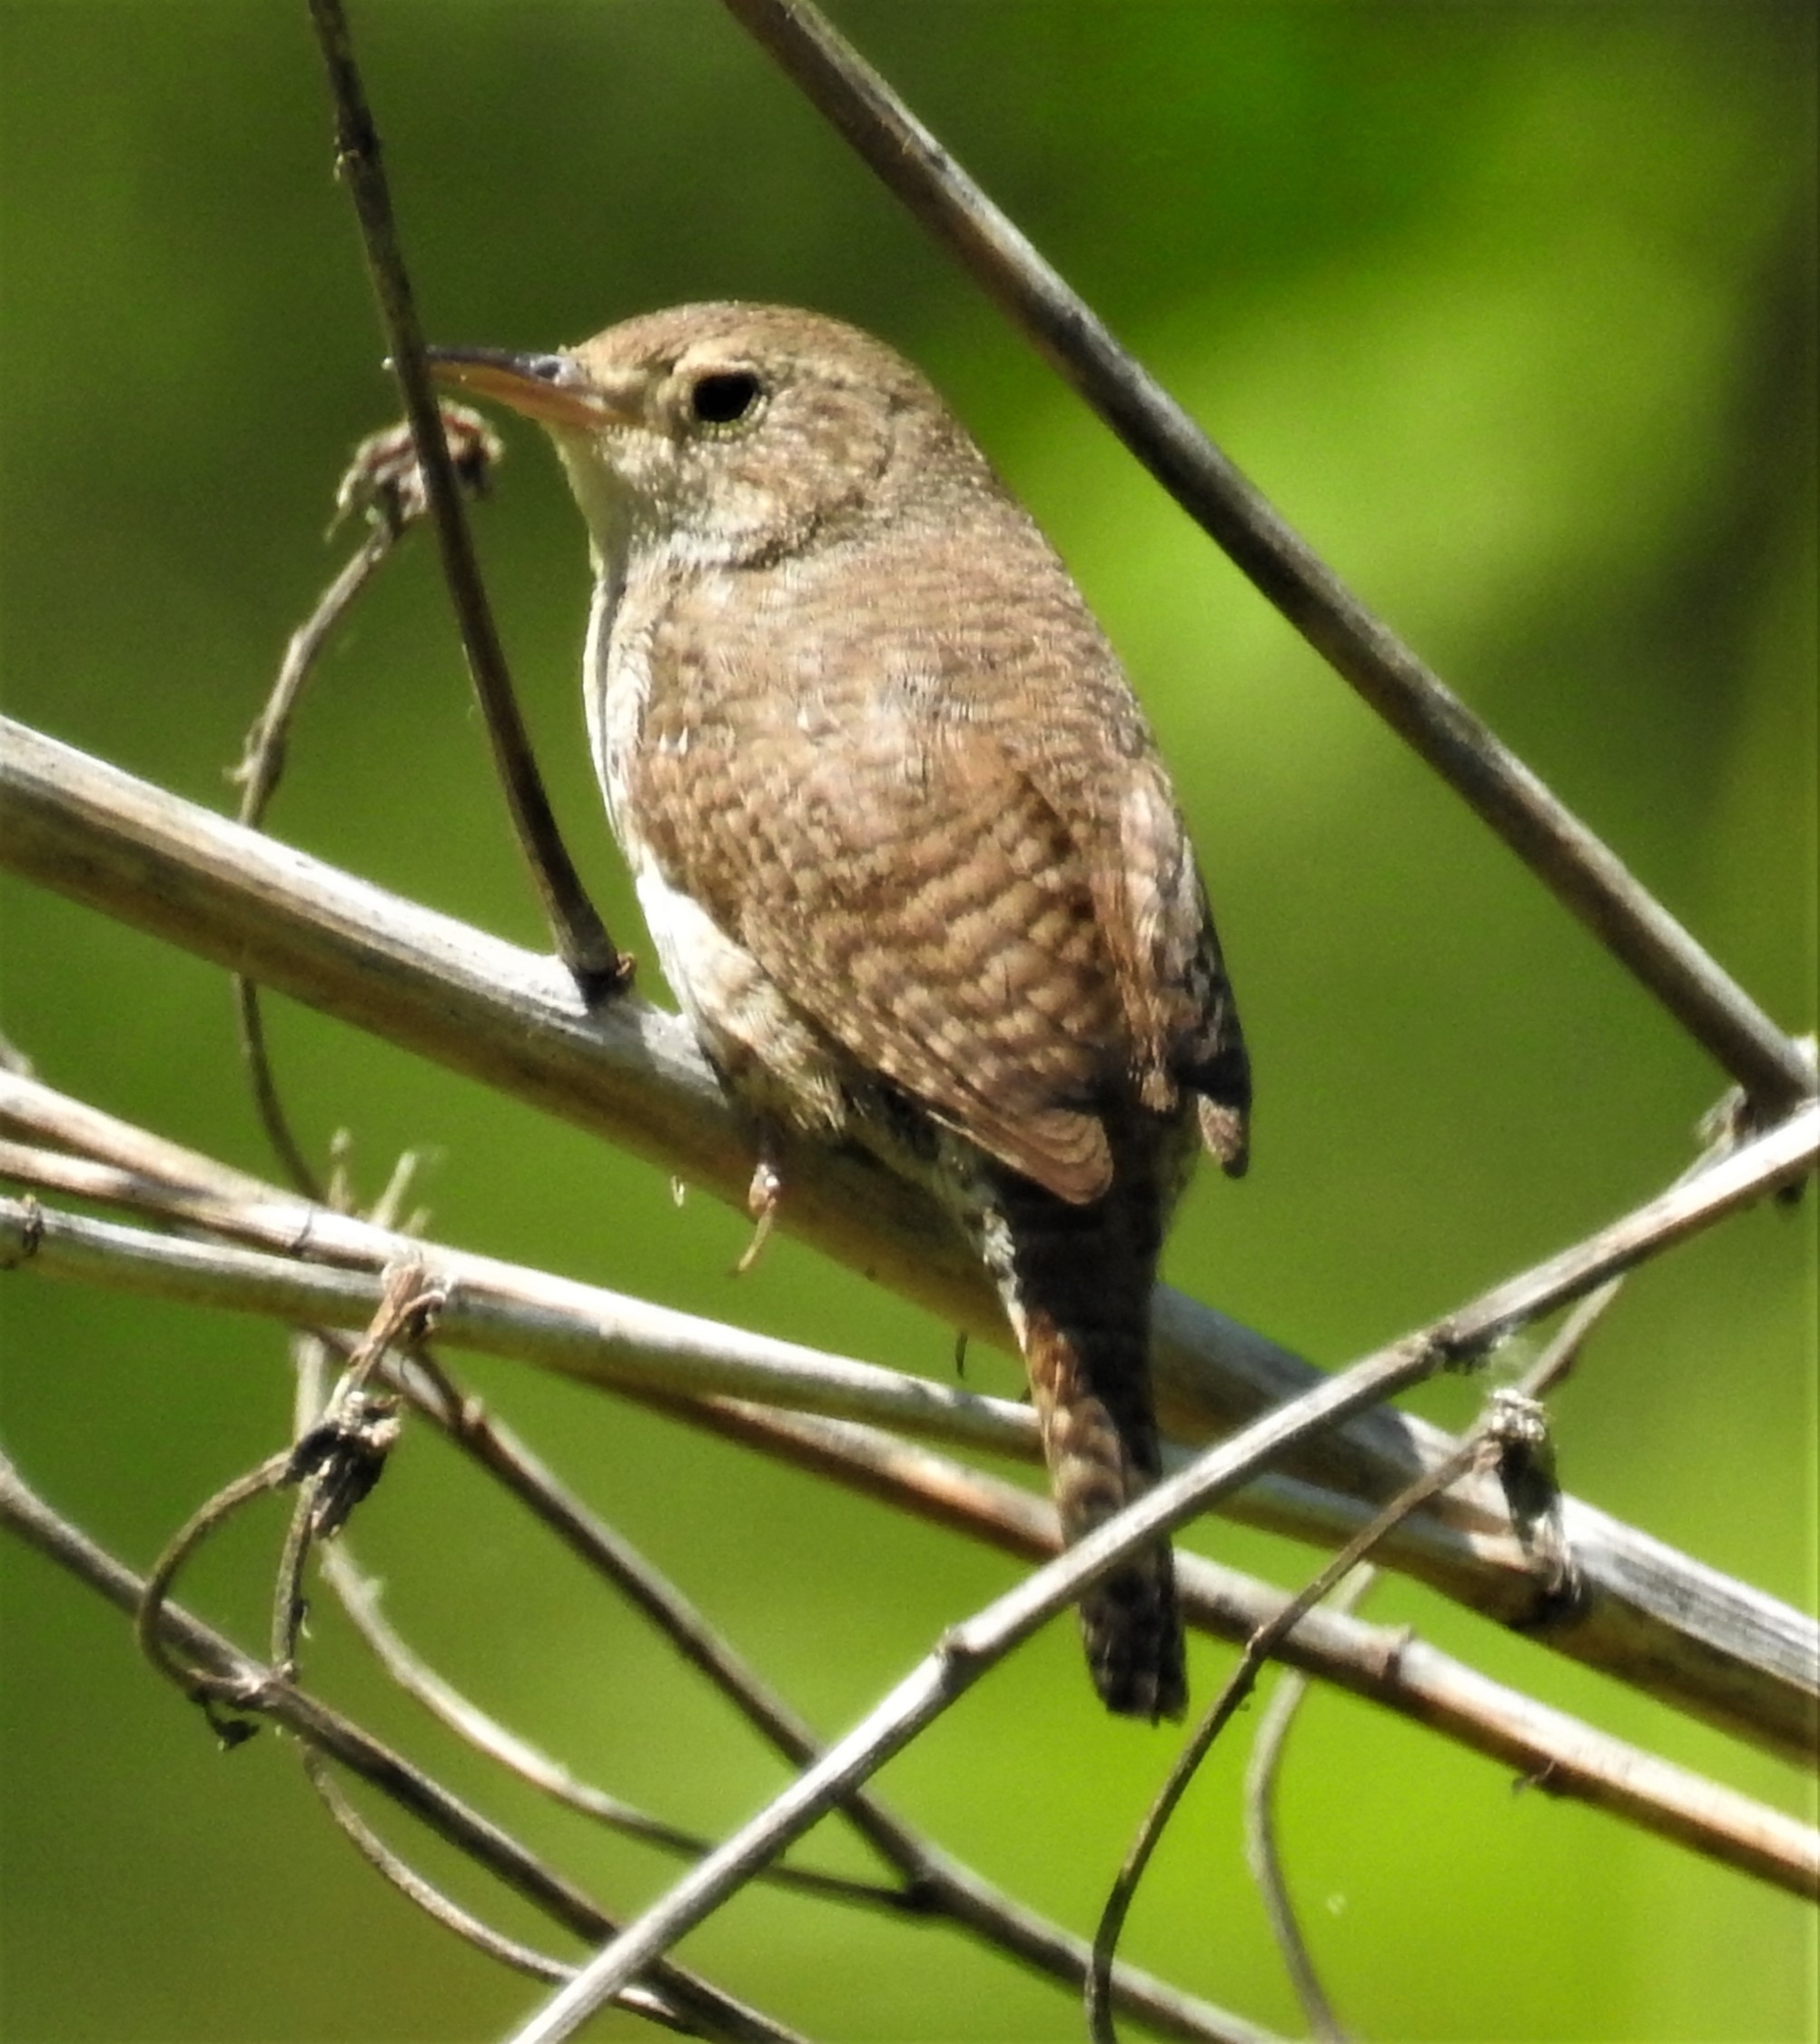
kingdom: Animalia
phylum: Chordata
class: Aves
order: Passeriformes
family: Troglodytidae
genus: Troglodytes
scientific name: Troglodytes aedon
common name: House wren
